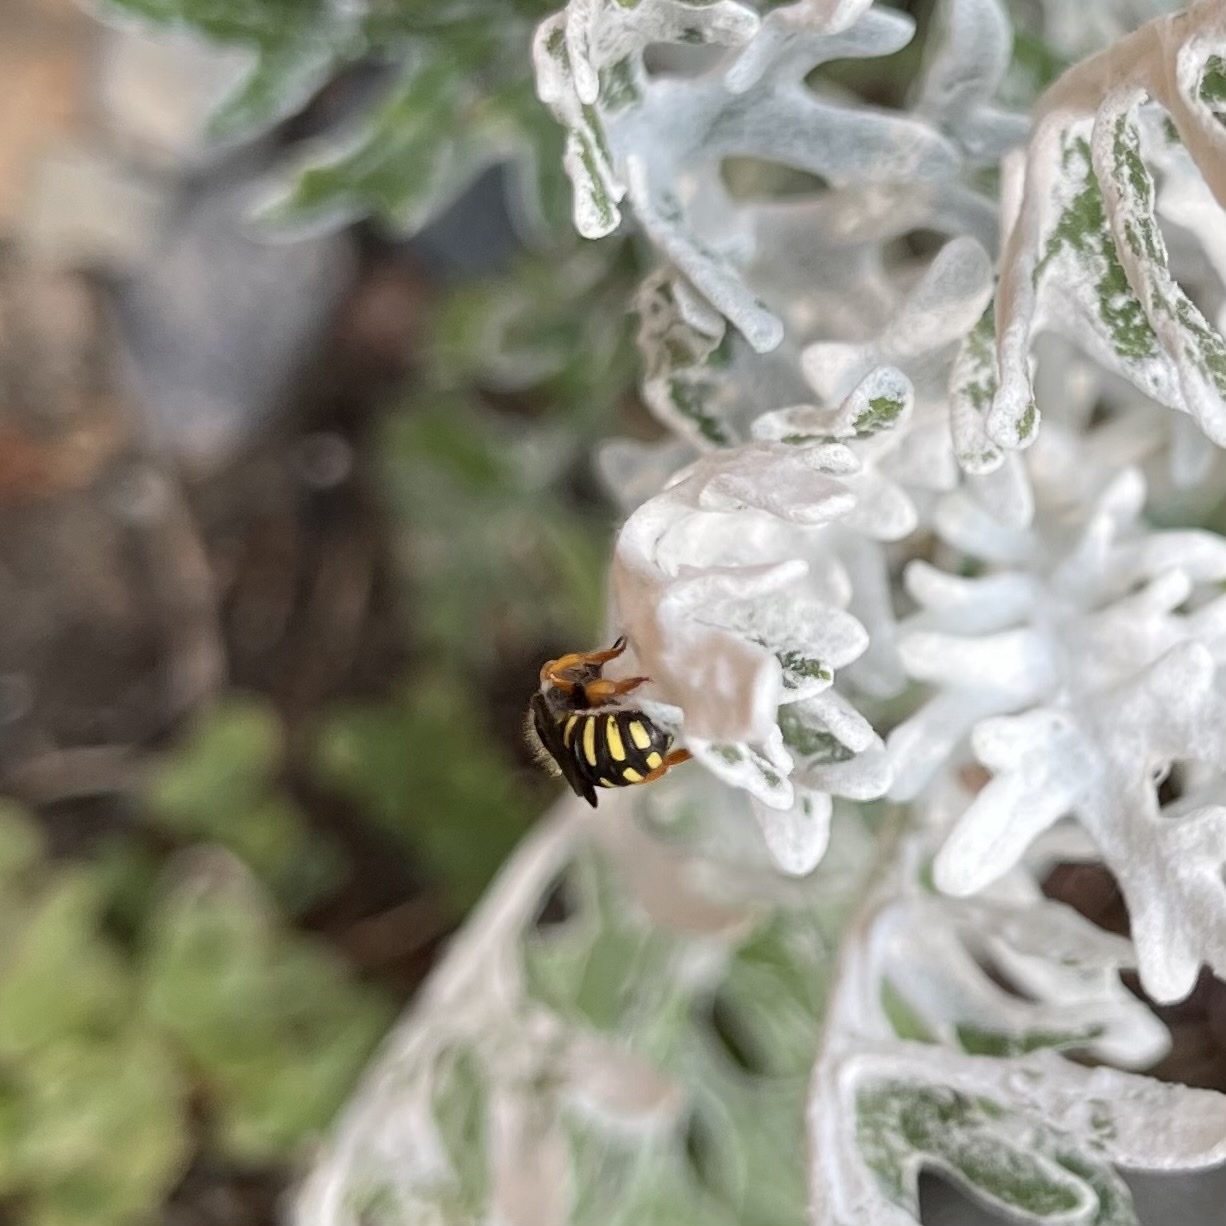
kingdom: Animalia
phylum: Arthropoda
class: Insecta
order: Hymenoptera
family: Megachilidae
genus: Anthidium
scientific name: Anthidium oblongatum
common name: Oblong wool carder bee
